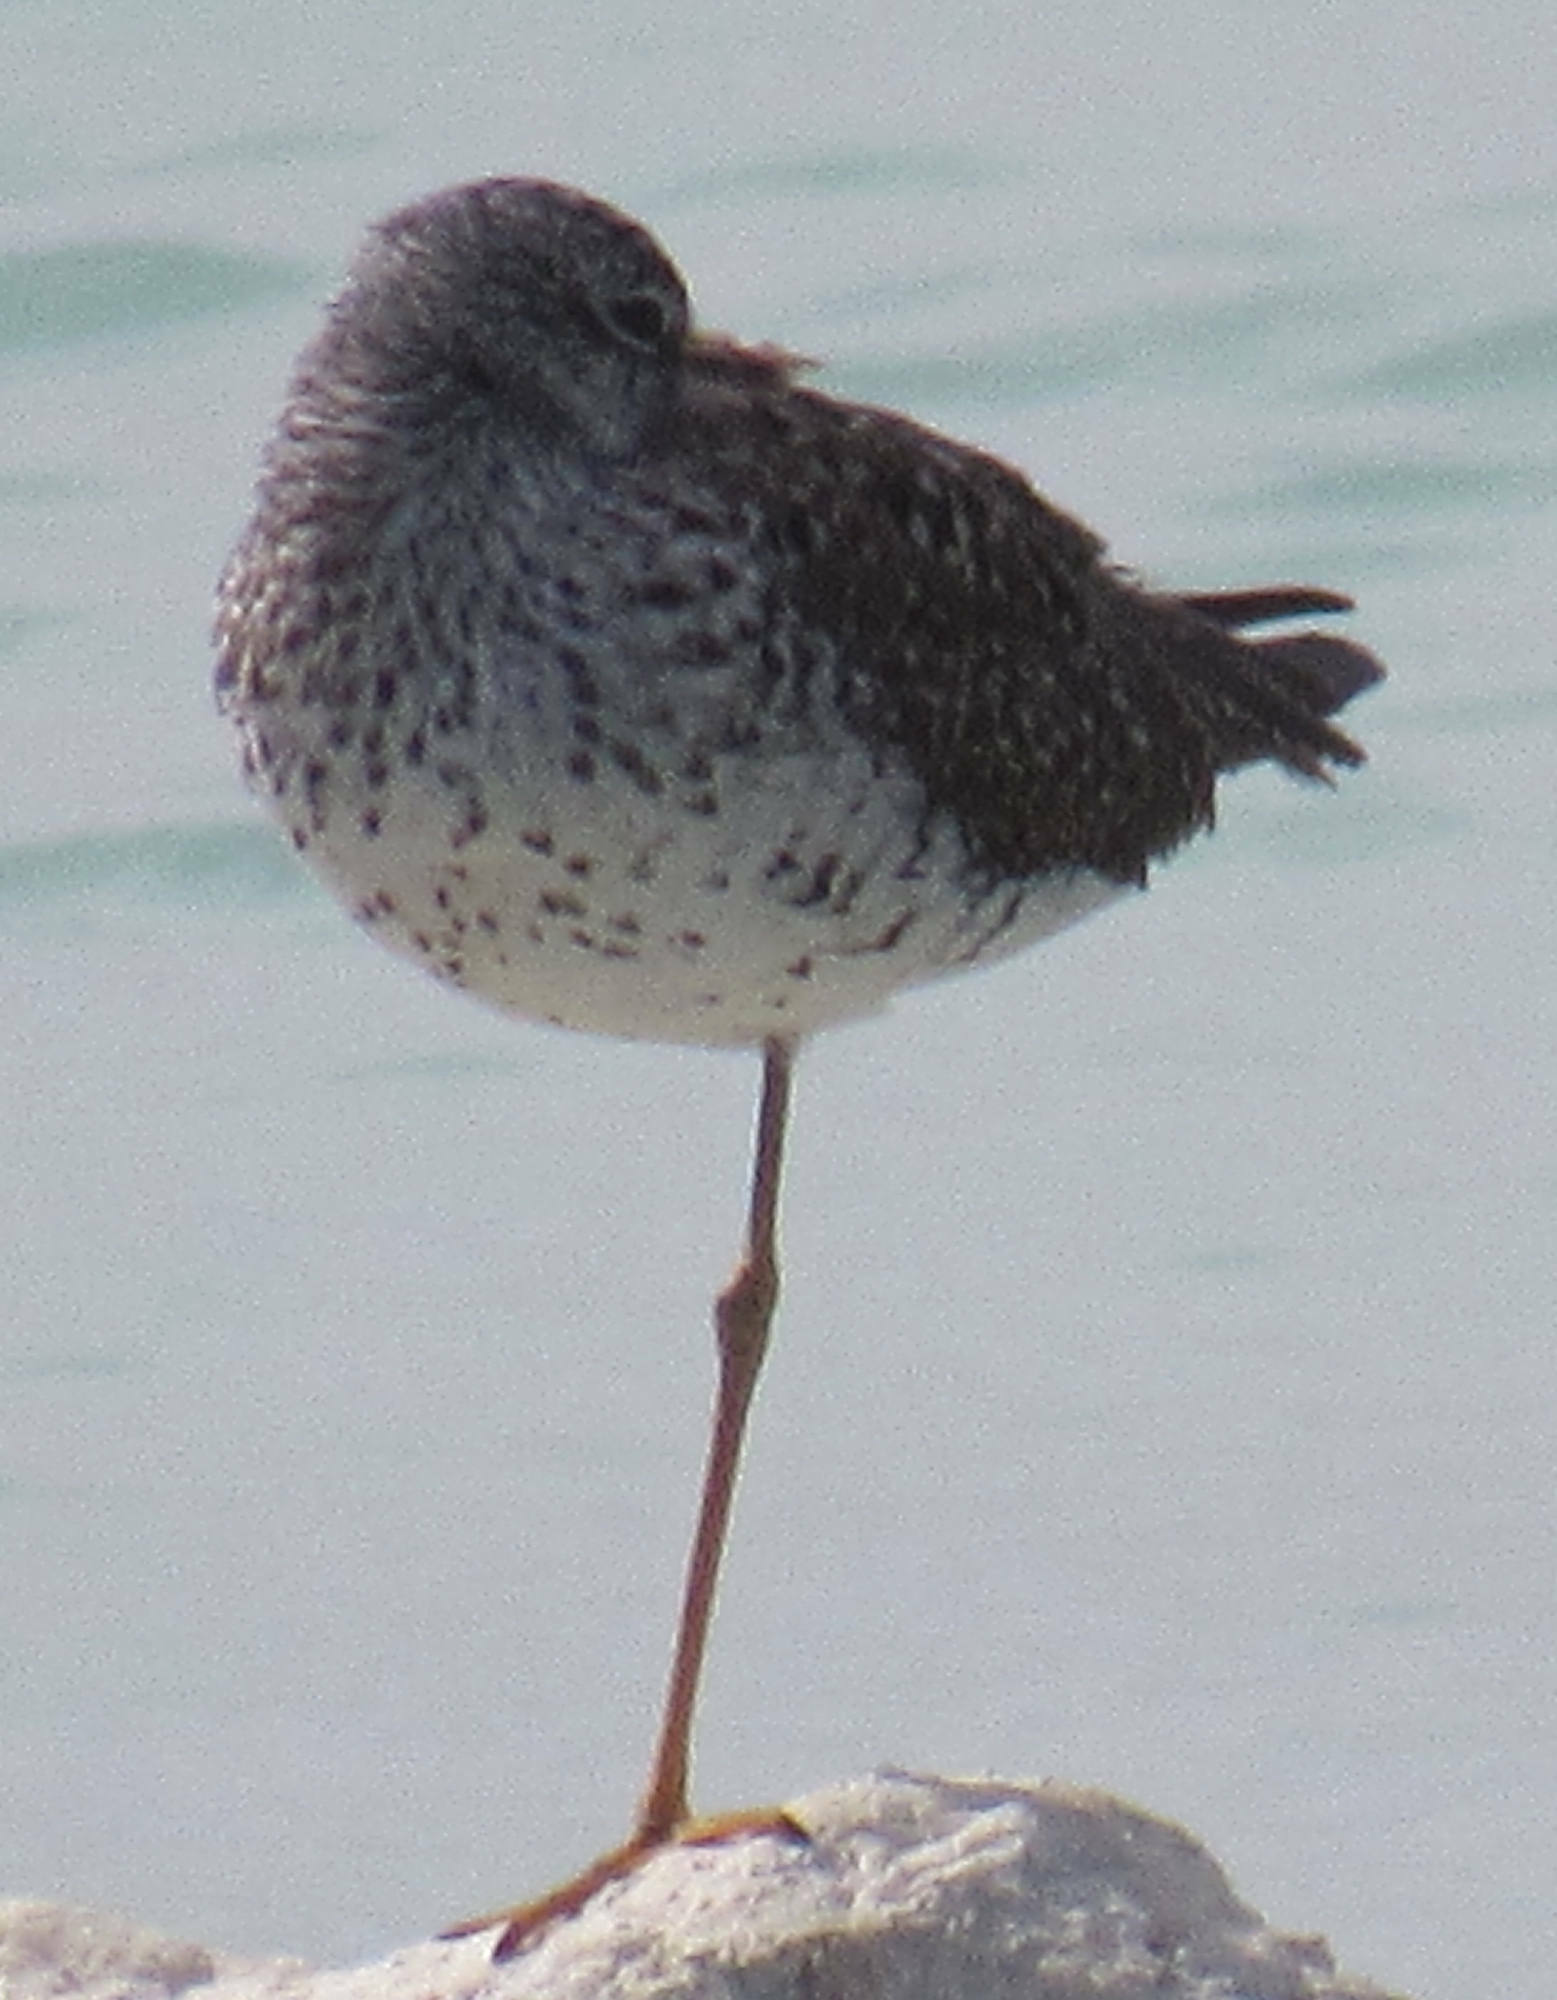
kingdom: Animalia
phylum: Chordata
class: Aves
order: Charadriiformes
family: Scolopacidae
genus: Tringa
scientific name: Tringa flavipes
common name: Lesser yellowlegs
